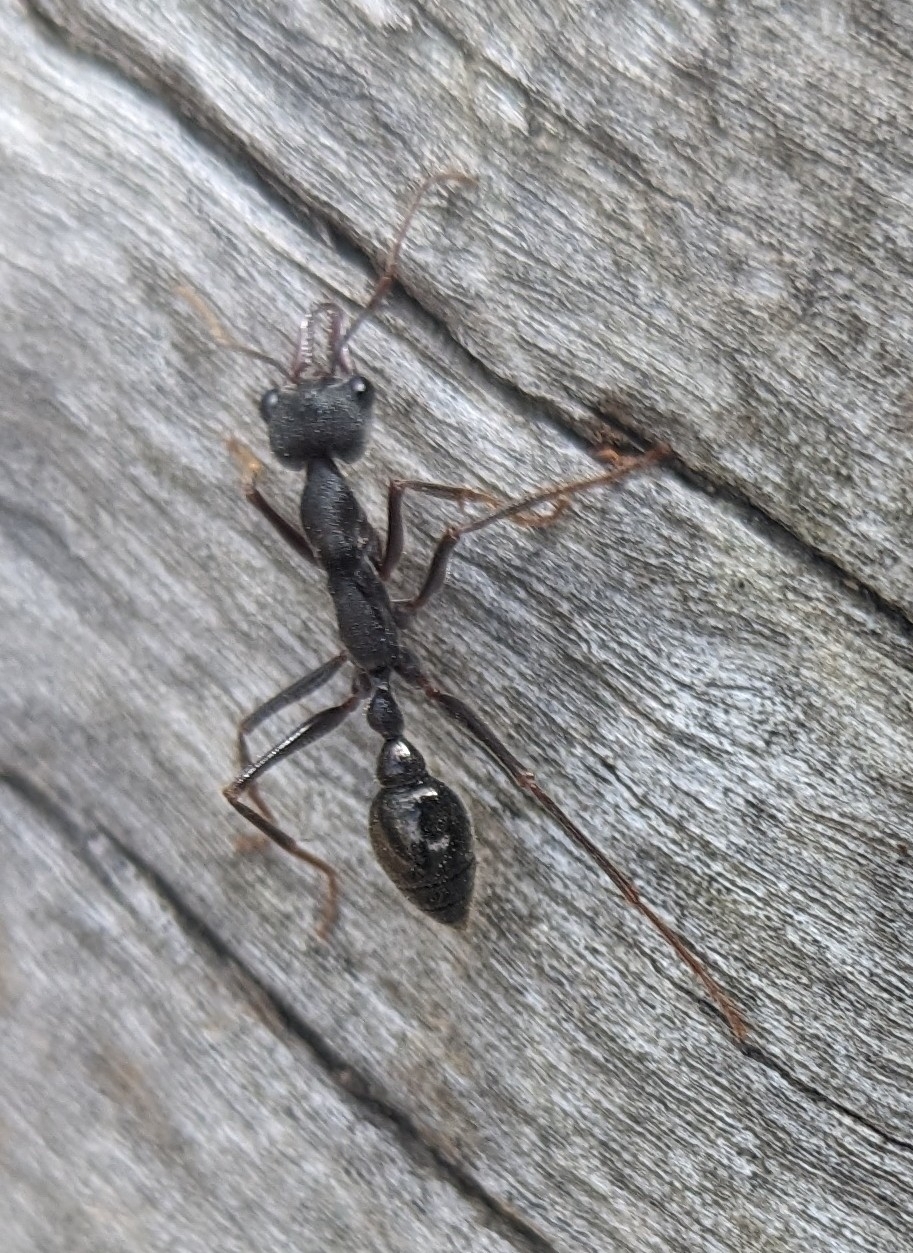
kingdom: Animalia
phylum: Arthropoda
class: Insecta
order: Hymenoptera
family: Formicidae
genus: Myrmecia
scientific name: Myrmecia pyriformis
